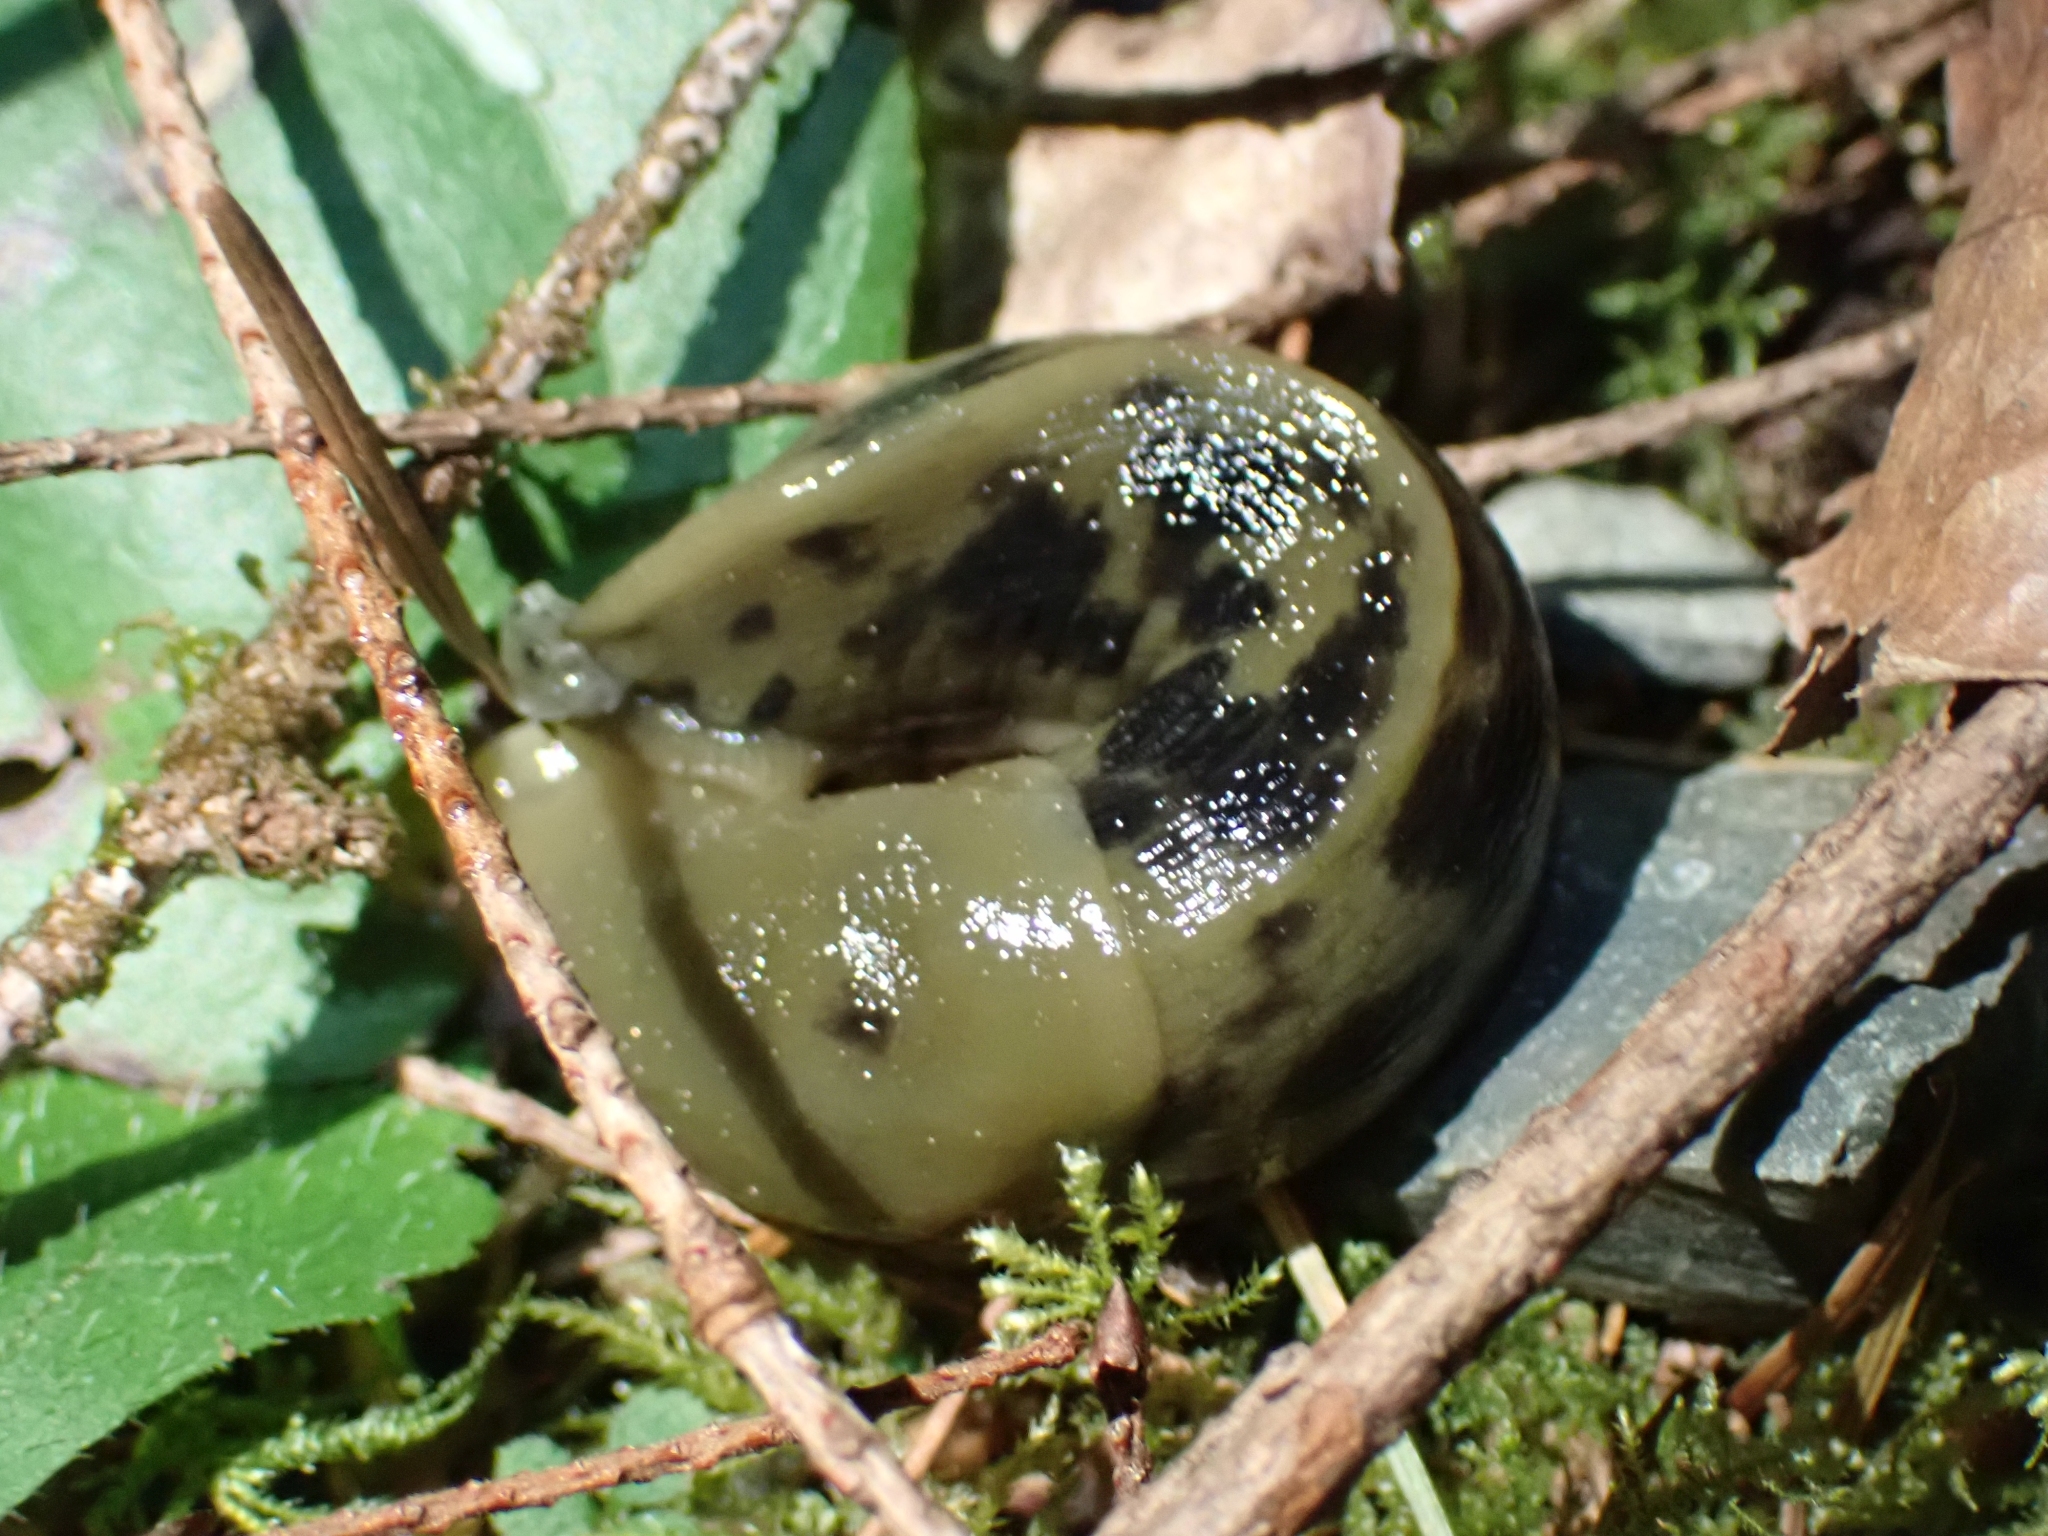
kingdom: Animalia
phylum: Mollusca
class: Gastropoda
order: Stylommatophora
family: Ariolimacidae
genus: Ariolimax
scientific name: Ariolimax columbianus
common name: Pacific banana slug
